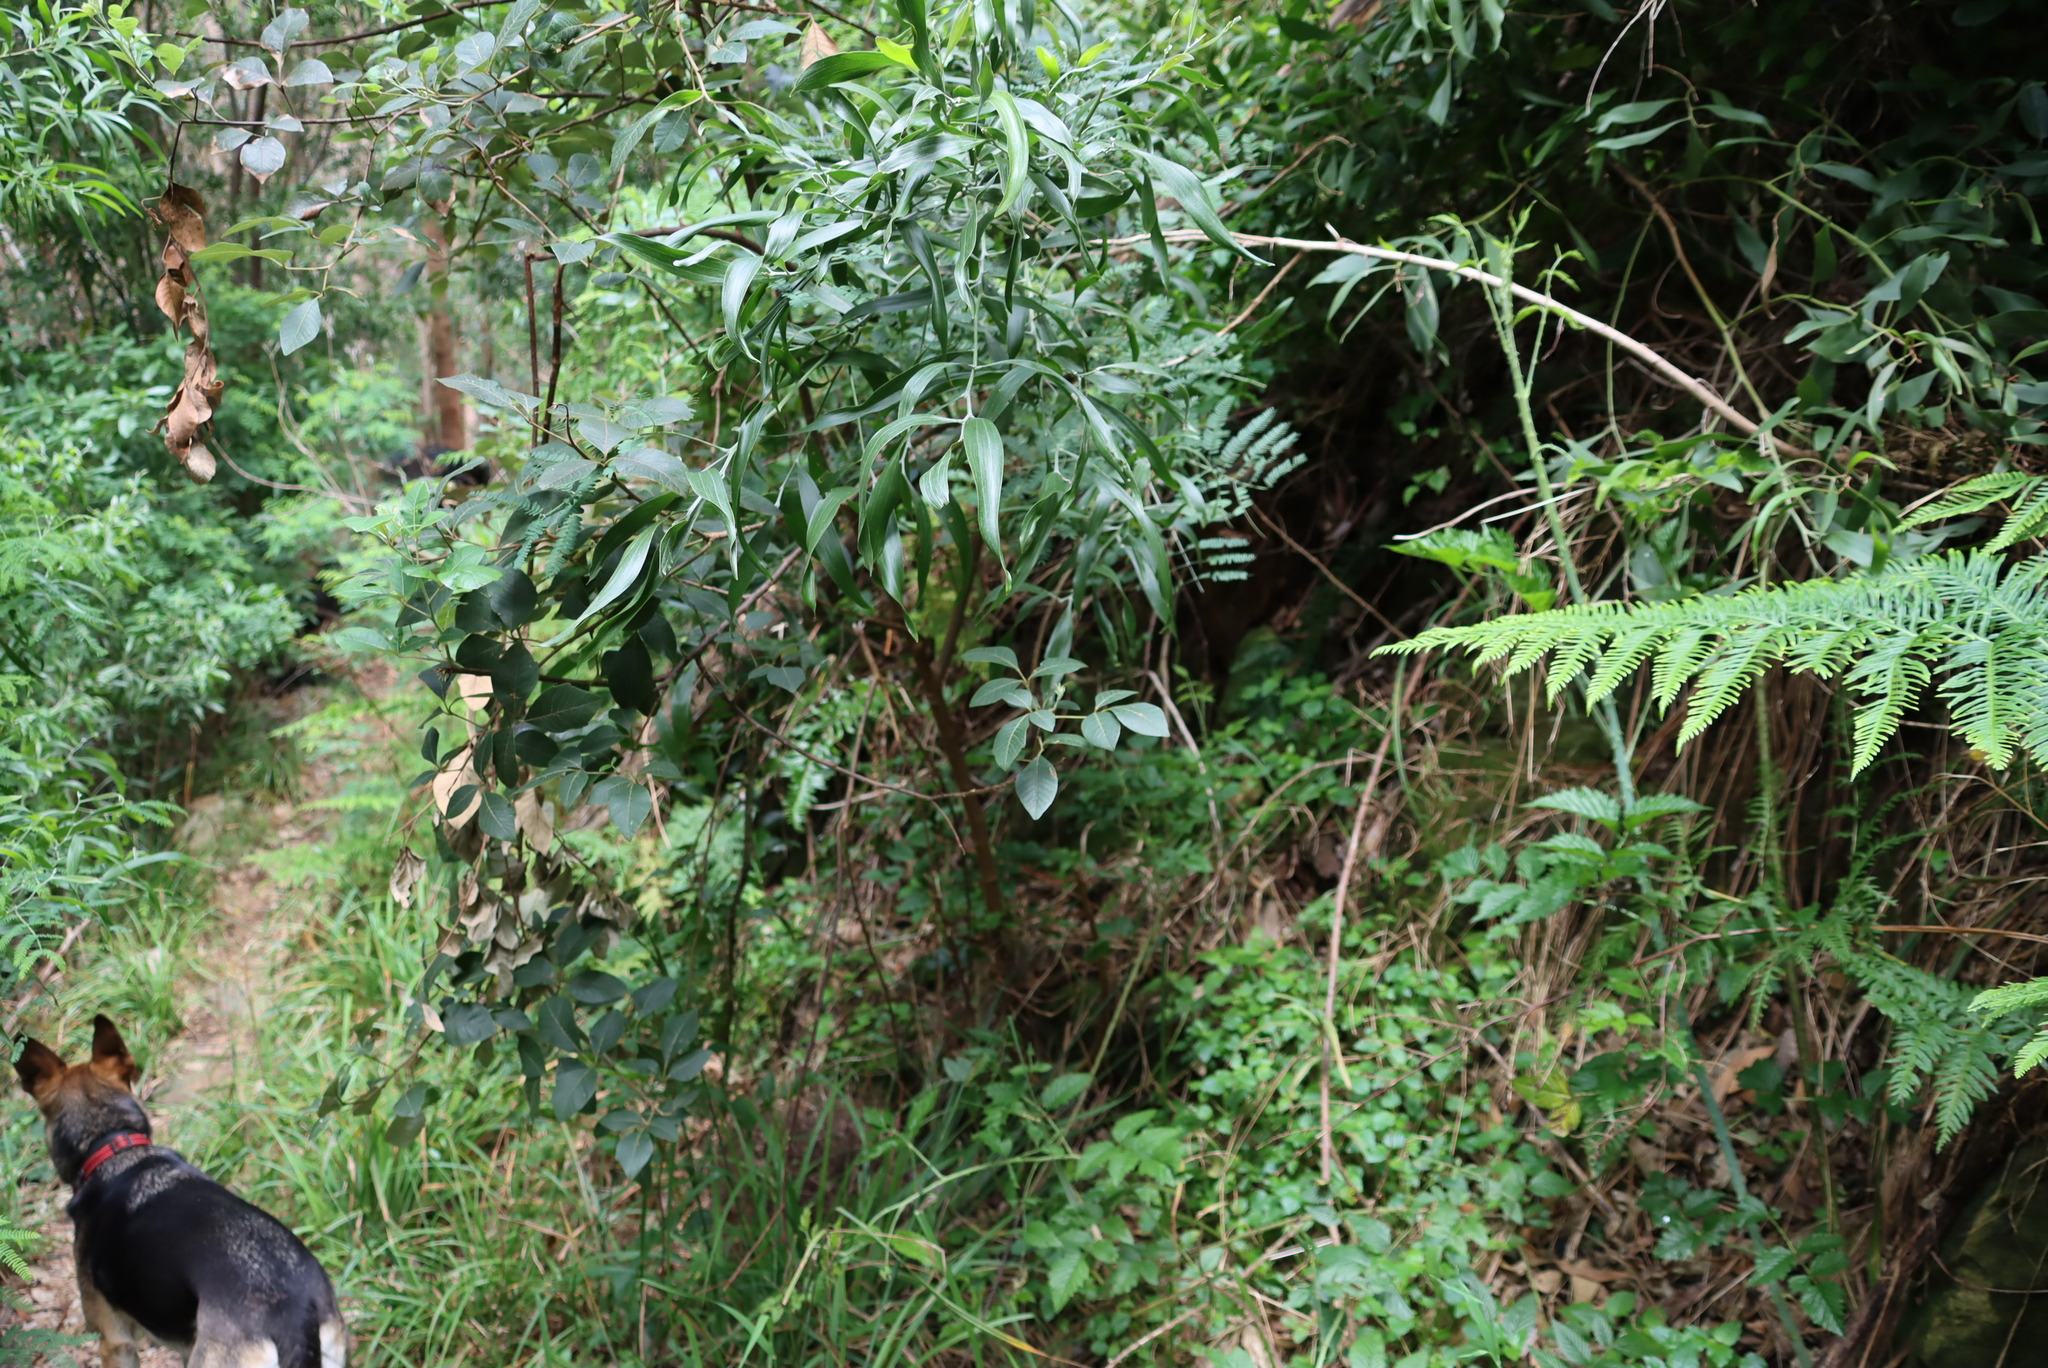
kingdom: Plantae
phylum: Tracheophyta
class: Magnoliopsida
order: Sapindales
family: Anacardiaceae
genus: Searsia
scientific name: Searsia tomentosa
